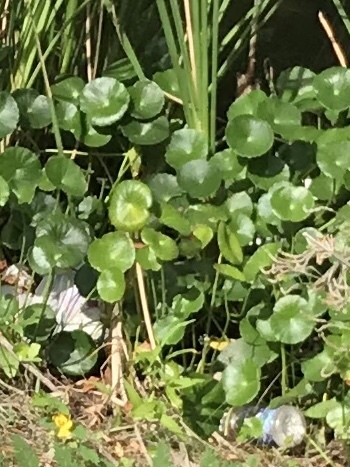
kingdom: Plantae
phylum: Tracheophyta
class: Magnoliopsida
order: Apiales
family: Araliaceae
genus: Hydrocotyle
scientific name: Hydrocotyle
